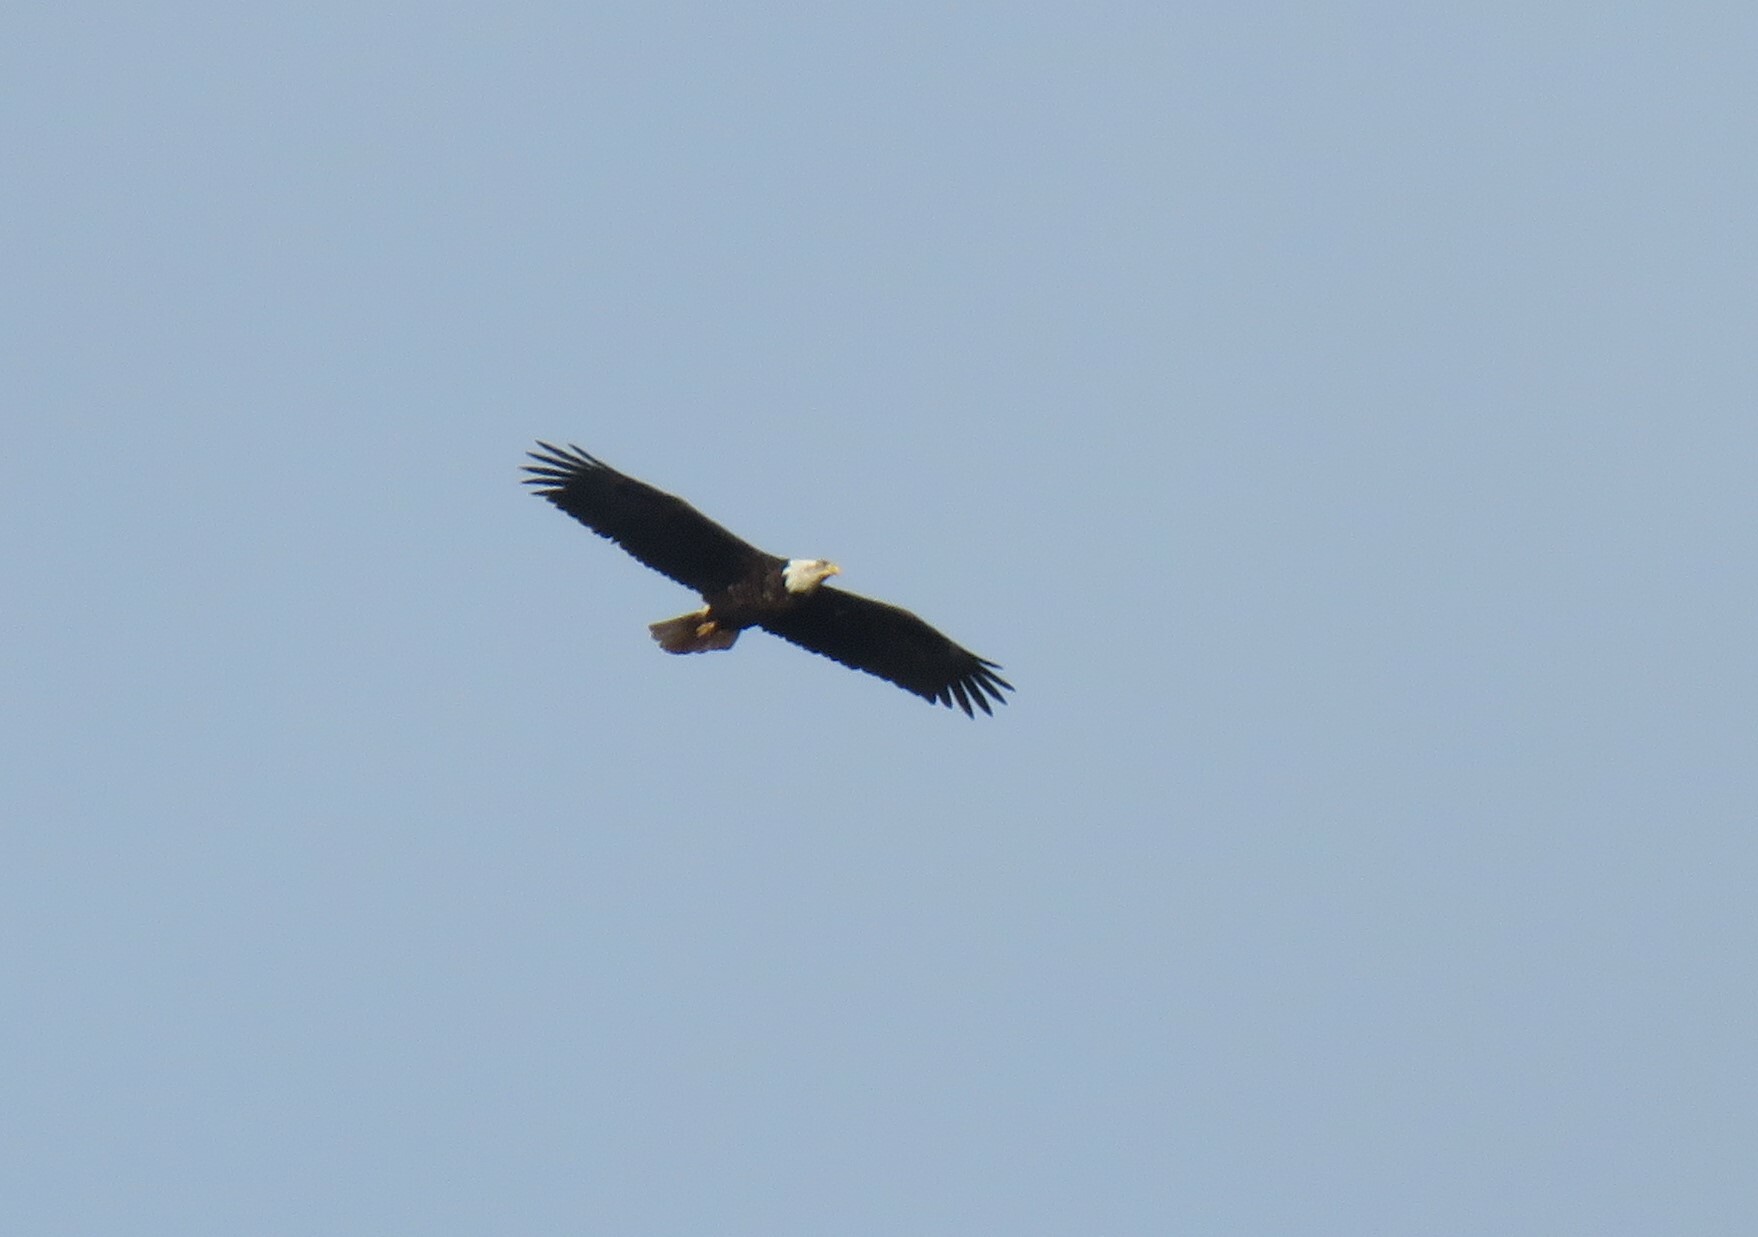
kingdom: Animalia
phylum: Chordata
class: Aves
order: Accipitriformes
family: Accipitridae
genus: Haliaeetus
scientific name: Haliaeetus leucocephalus
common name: Bald eagle
